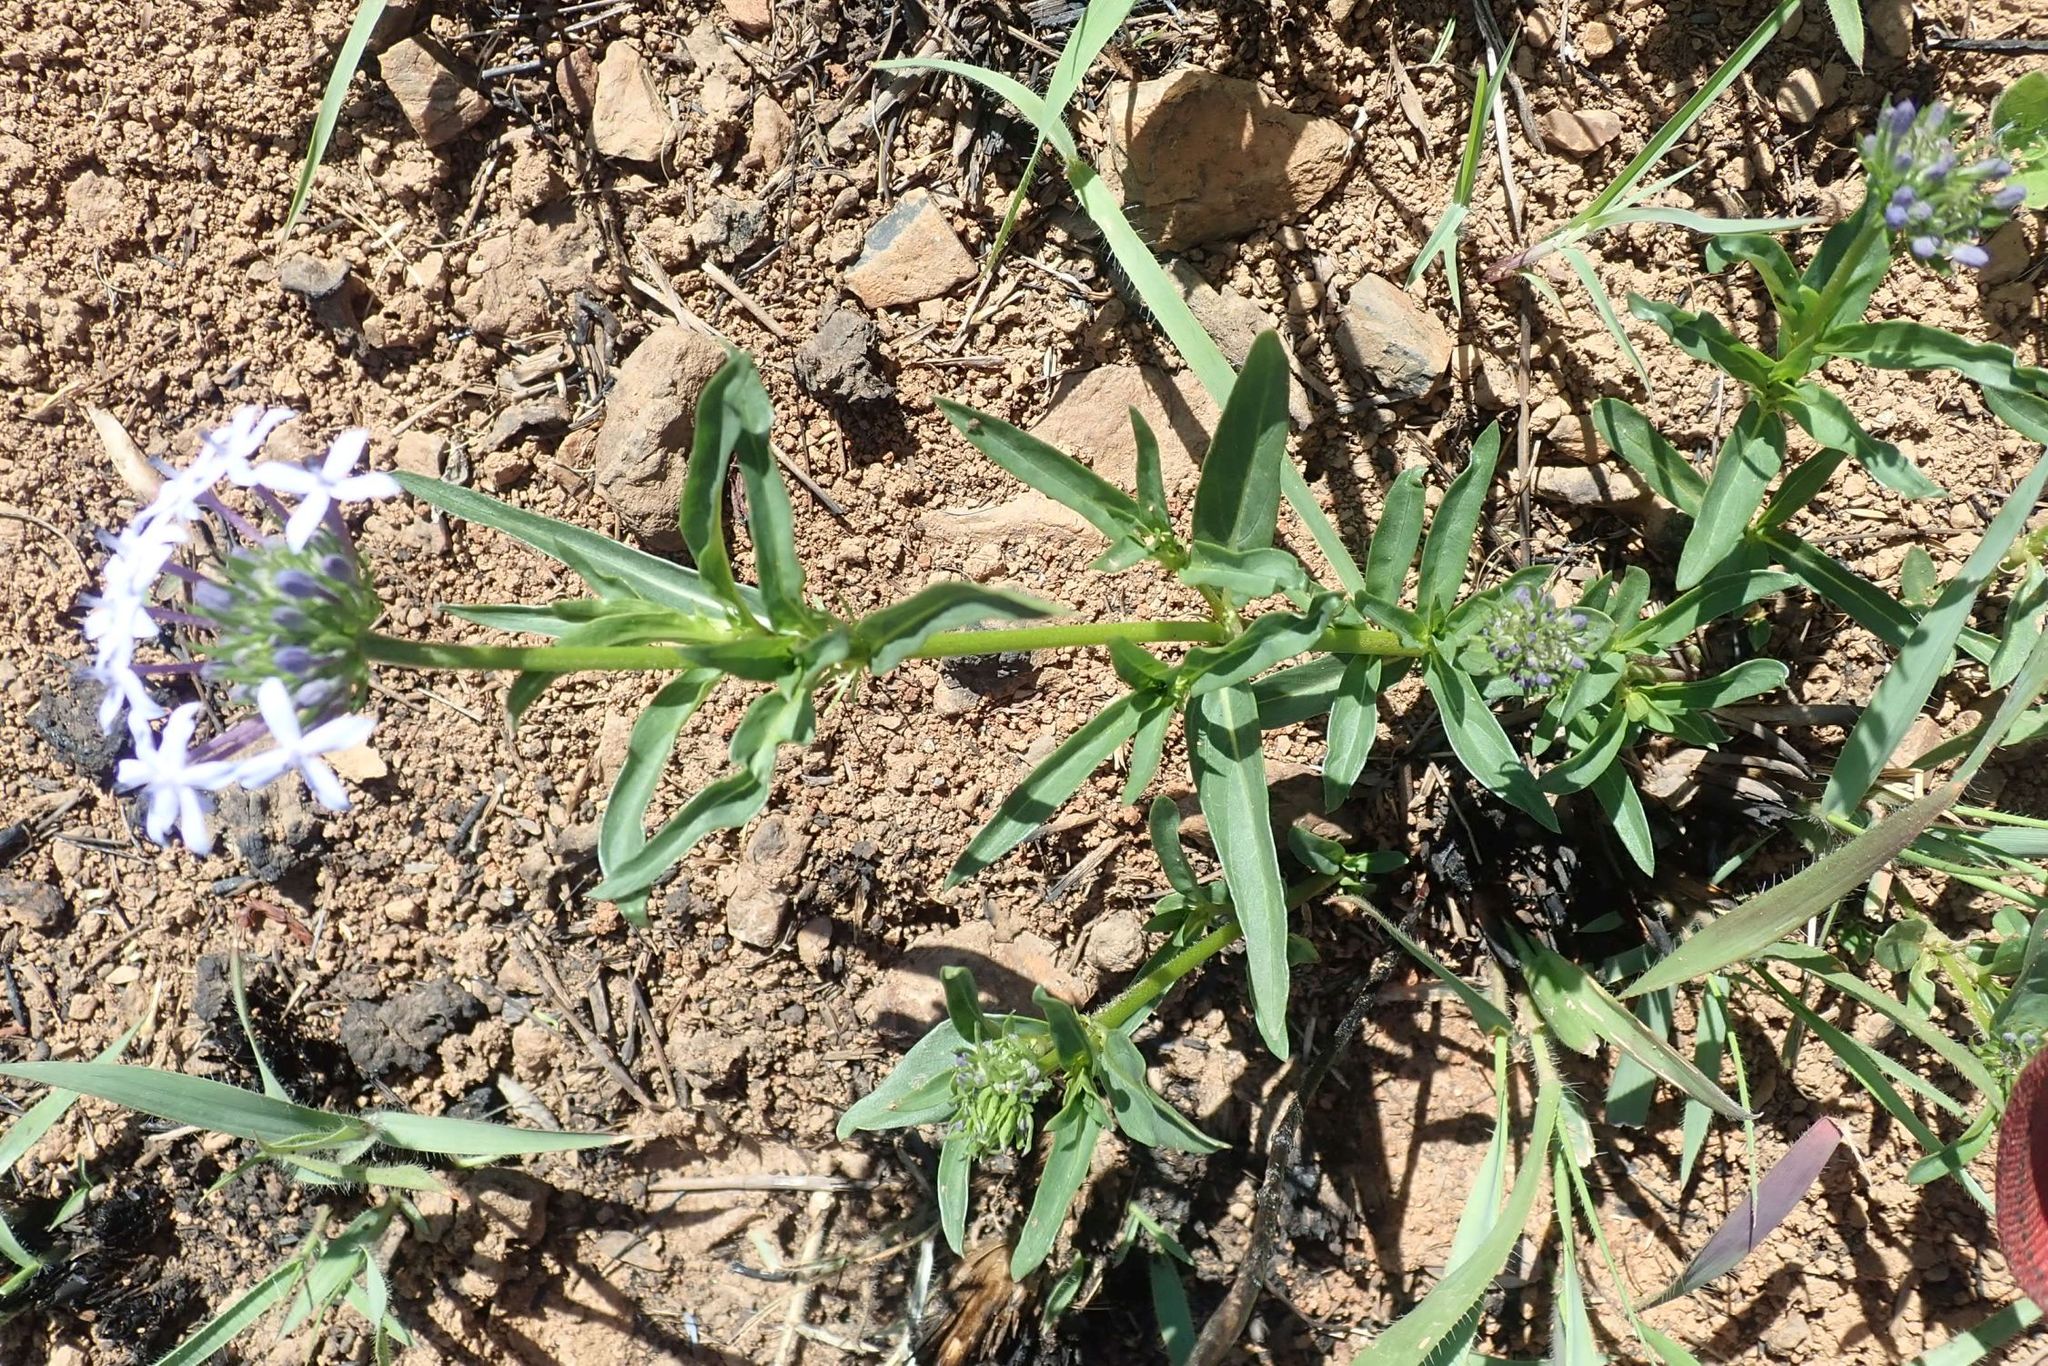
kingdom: Plantae
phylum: Tracheophyta
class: Magnoliopsida
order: Gentianales
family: Rubiaceae
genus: Pentanisia
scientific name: Pentanisia angustifolia
